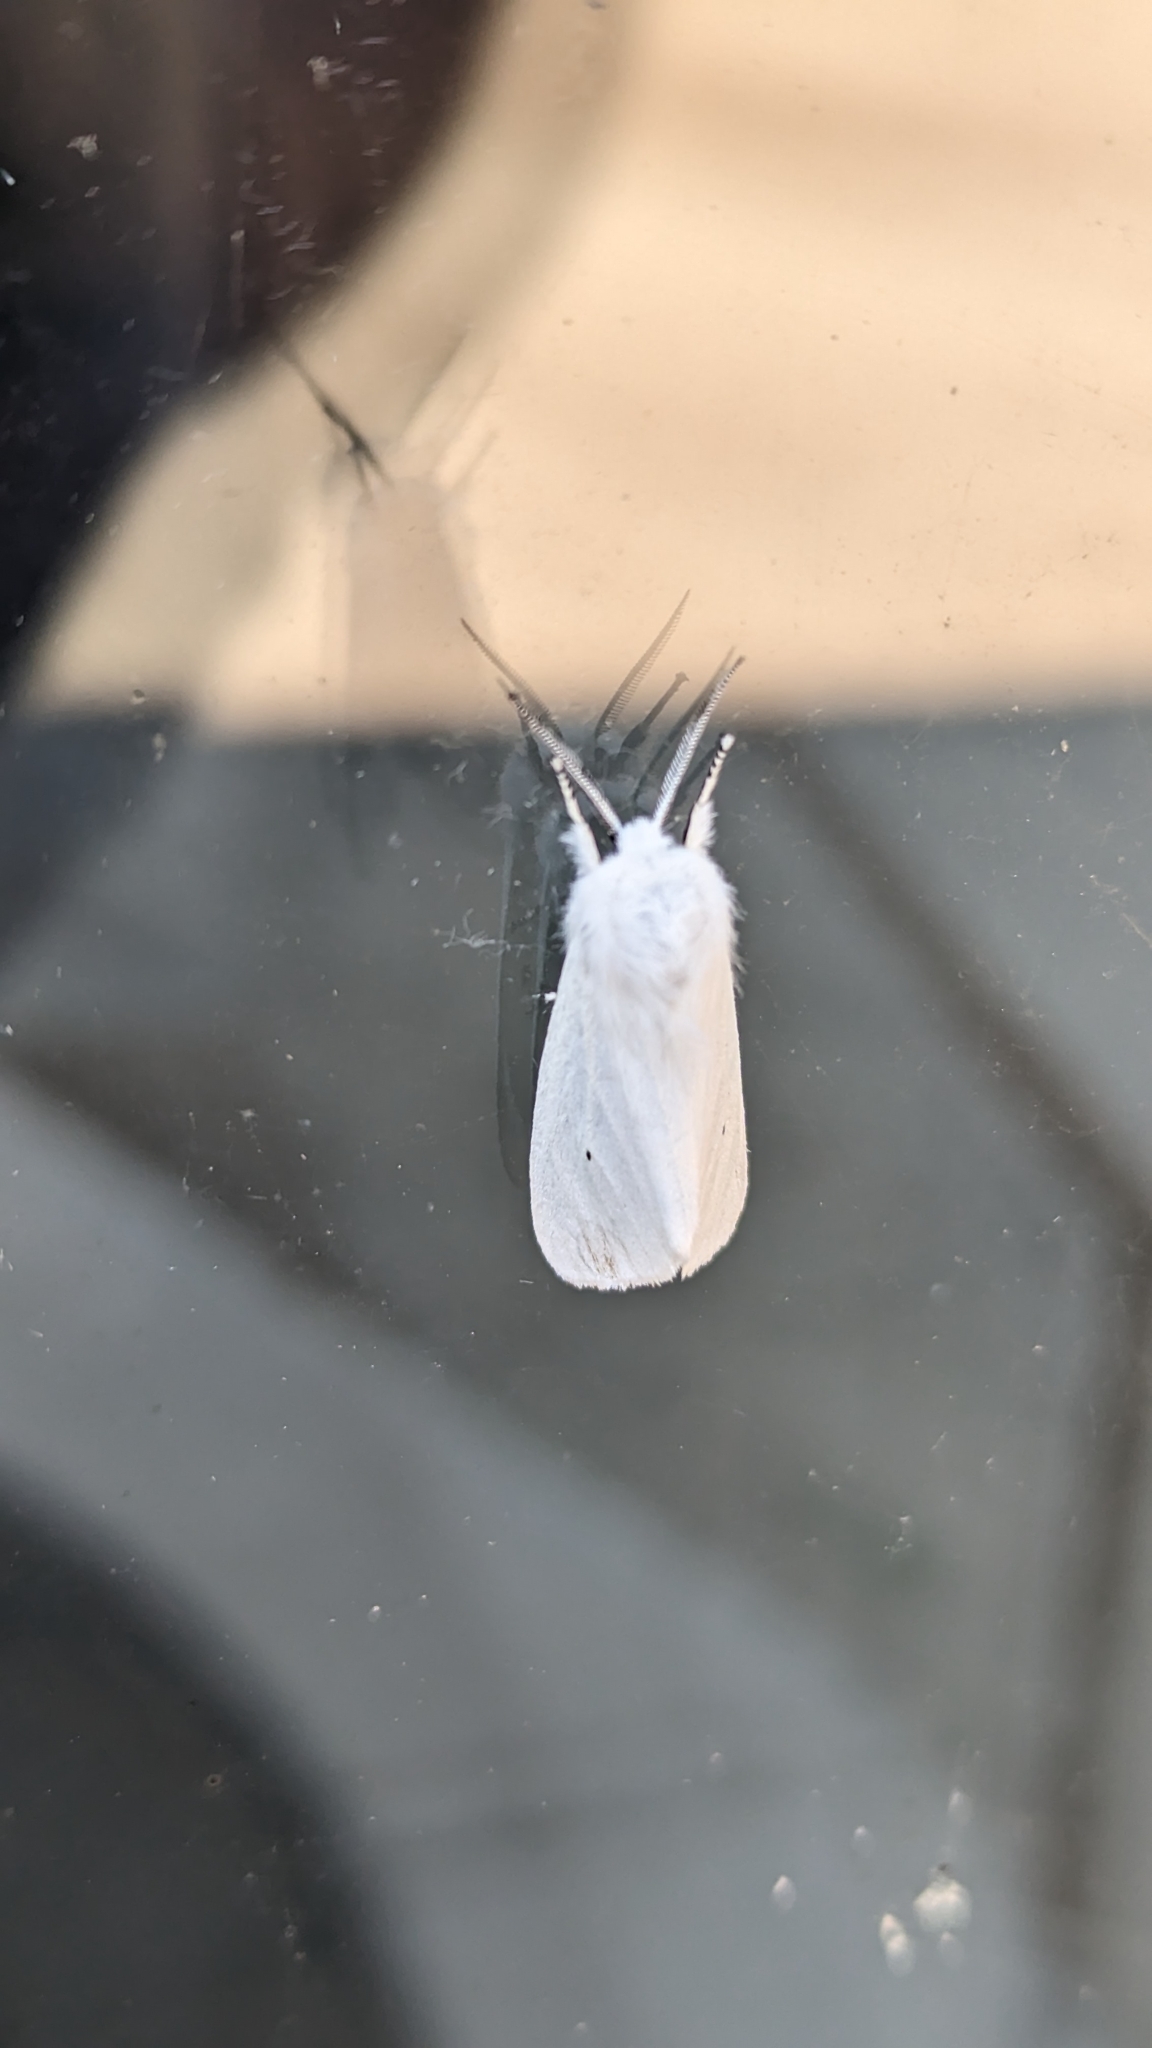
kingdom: Animalia
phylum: Arthropoda
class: Insecta
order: Lepidoptera
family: Erebidae
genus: Spilosoma
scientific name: Spilosoma virginica
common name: Virginia tiger moth
